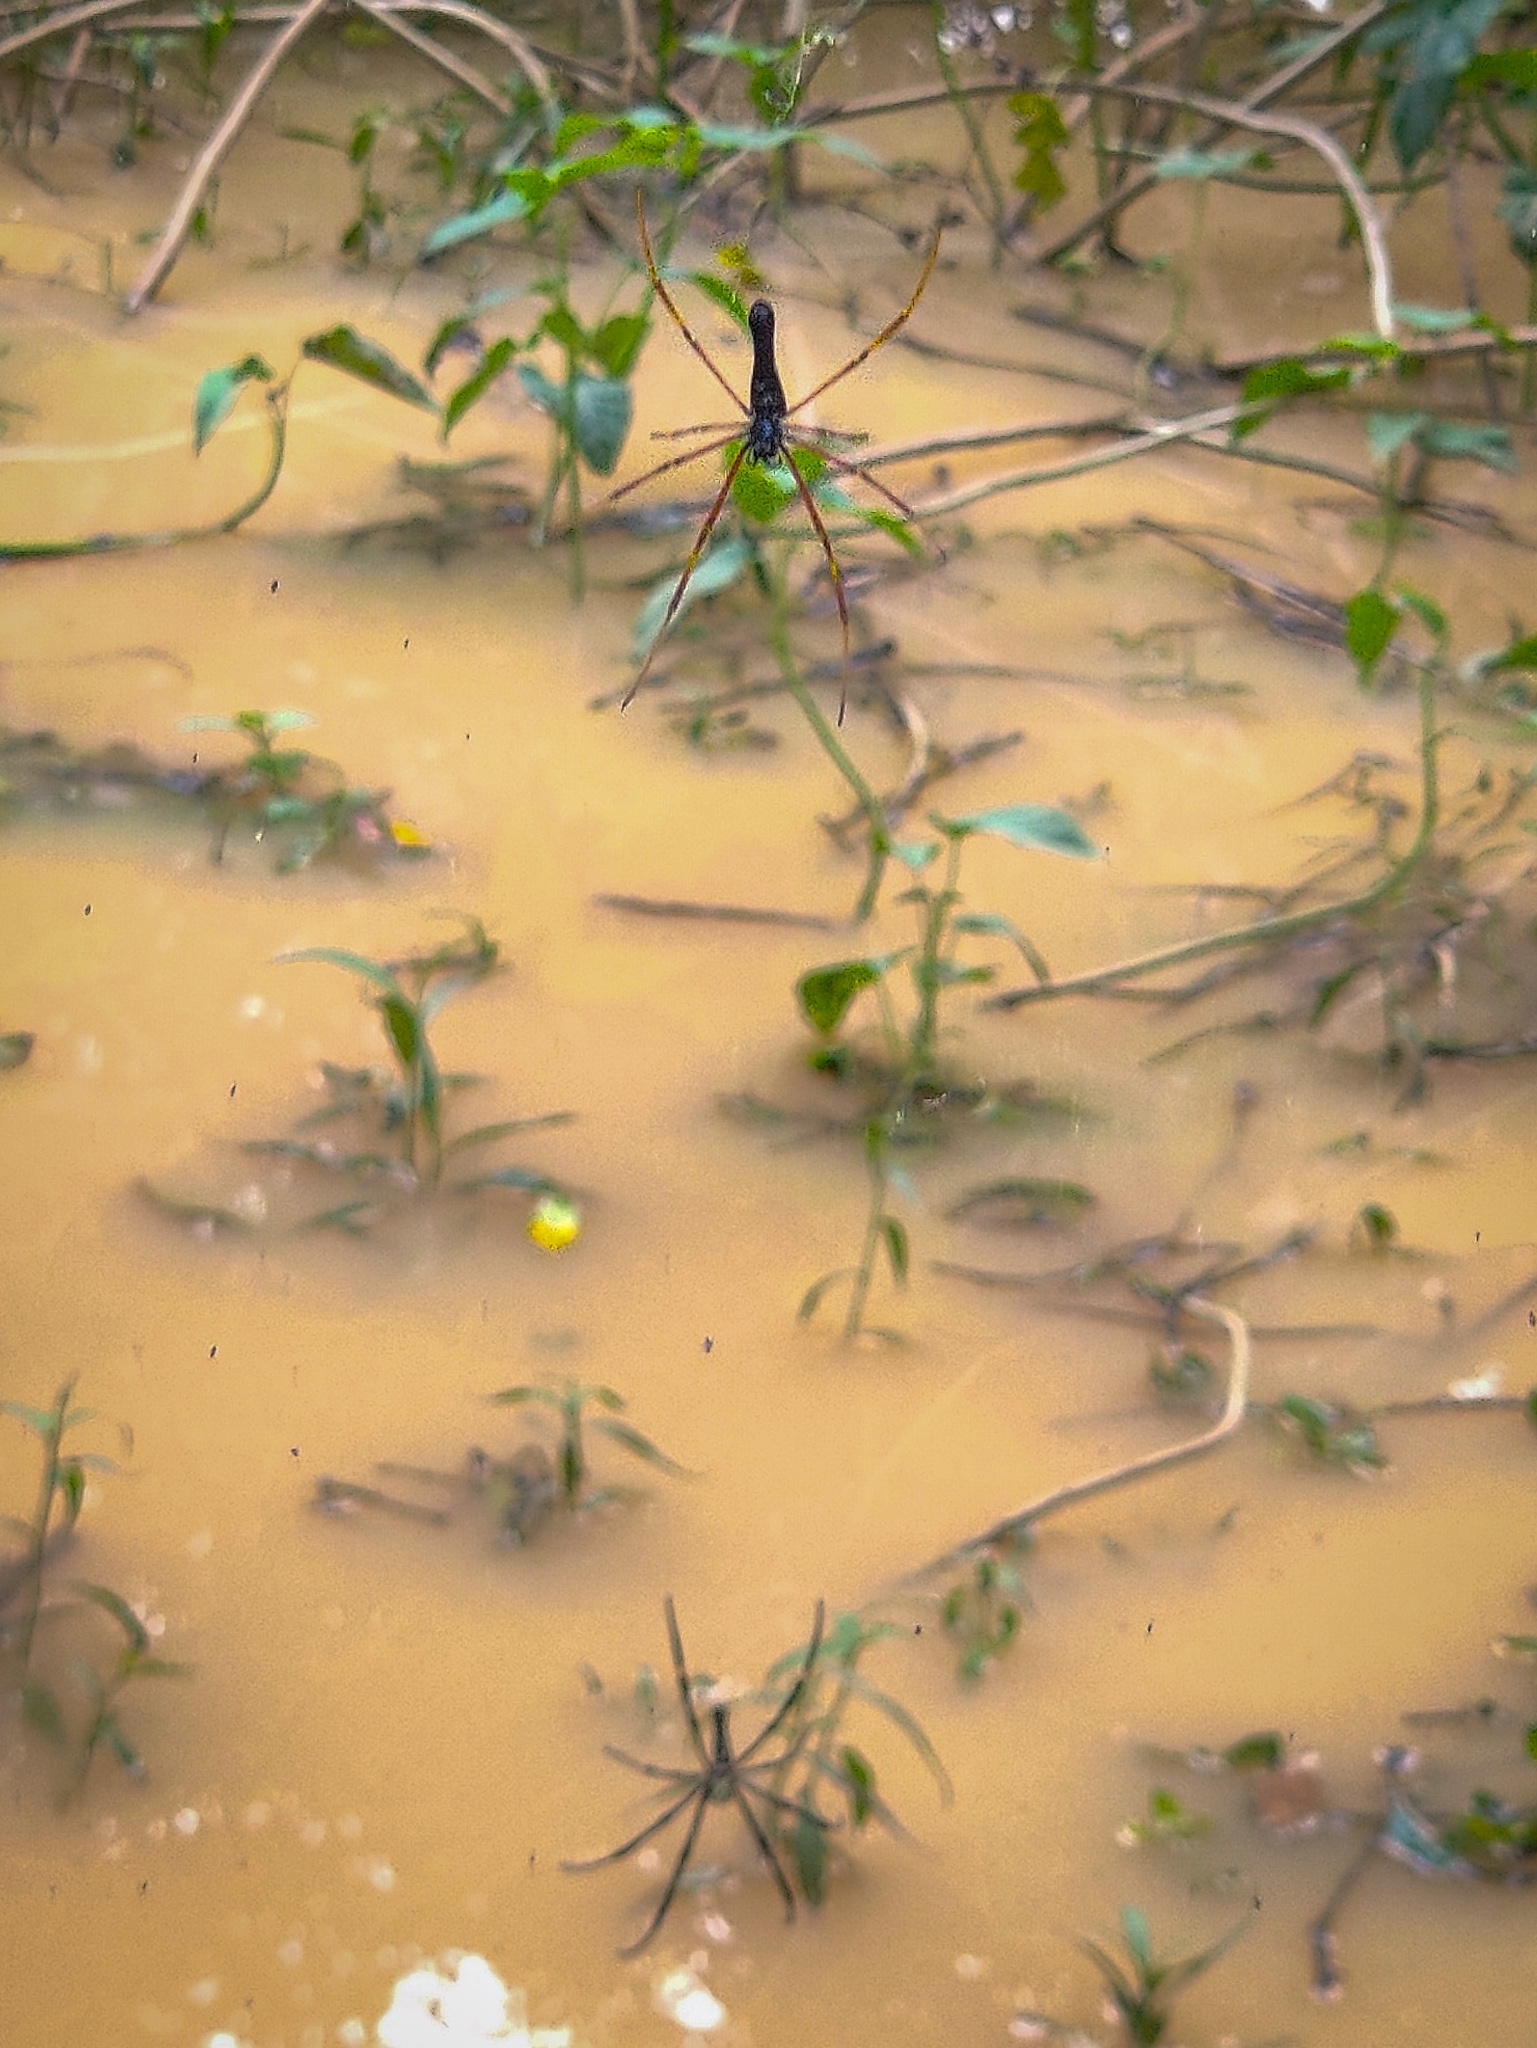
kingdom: Animalia
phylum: Arthropoda
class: Arachnida
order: Araneae
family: Araneidae
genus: Nephila
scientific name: Nephila kuhli
